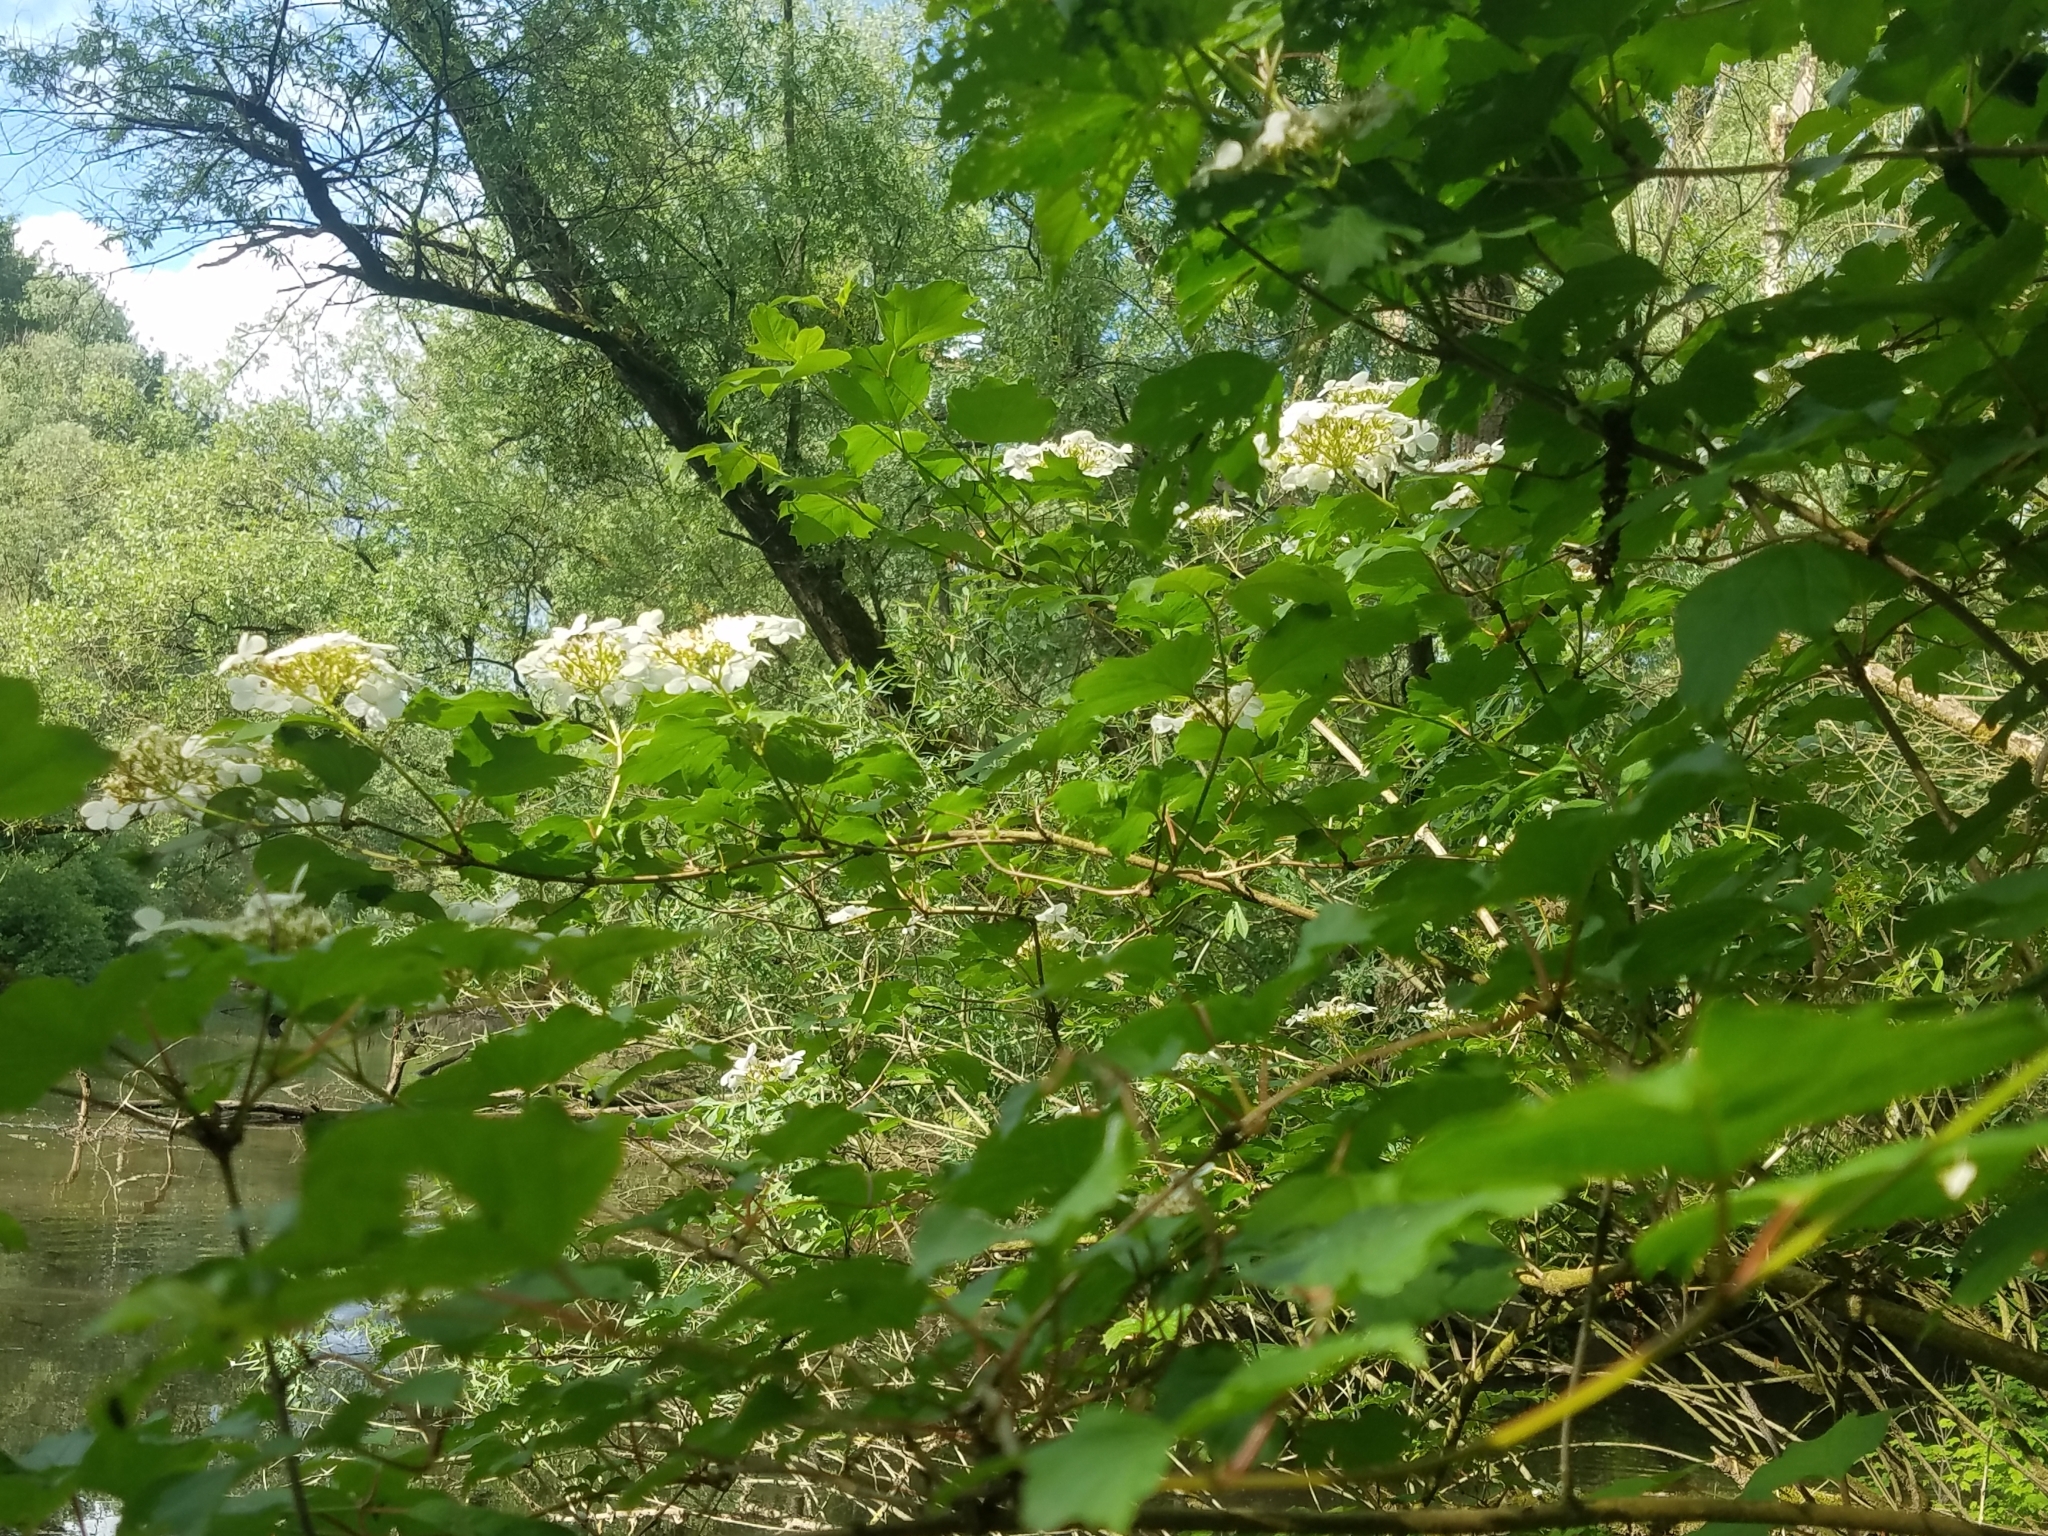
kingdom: Plantae
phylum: Tracheophyta
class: Magnoliopsida
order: Dipsacales
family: Viburnaceae
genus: Viburnum
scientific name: Viburnum opulus
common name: Guelder-rose
